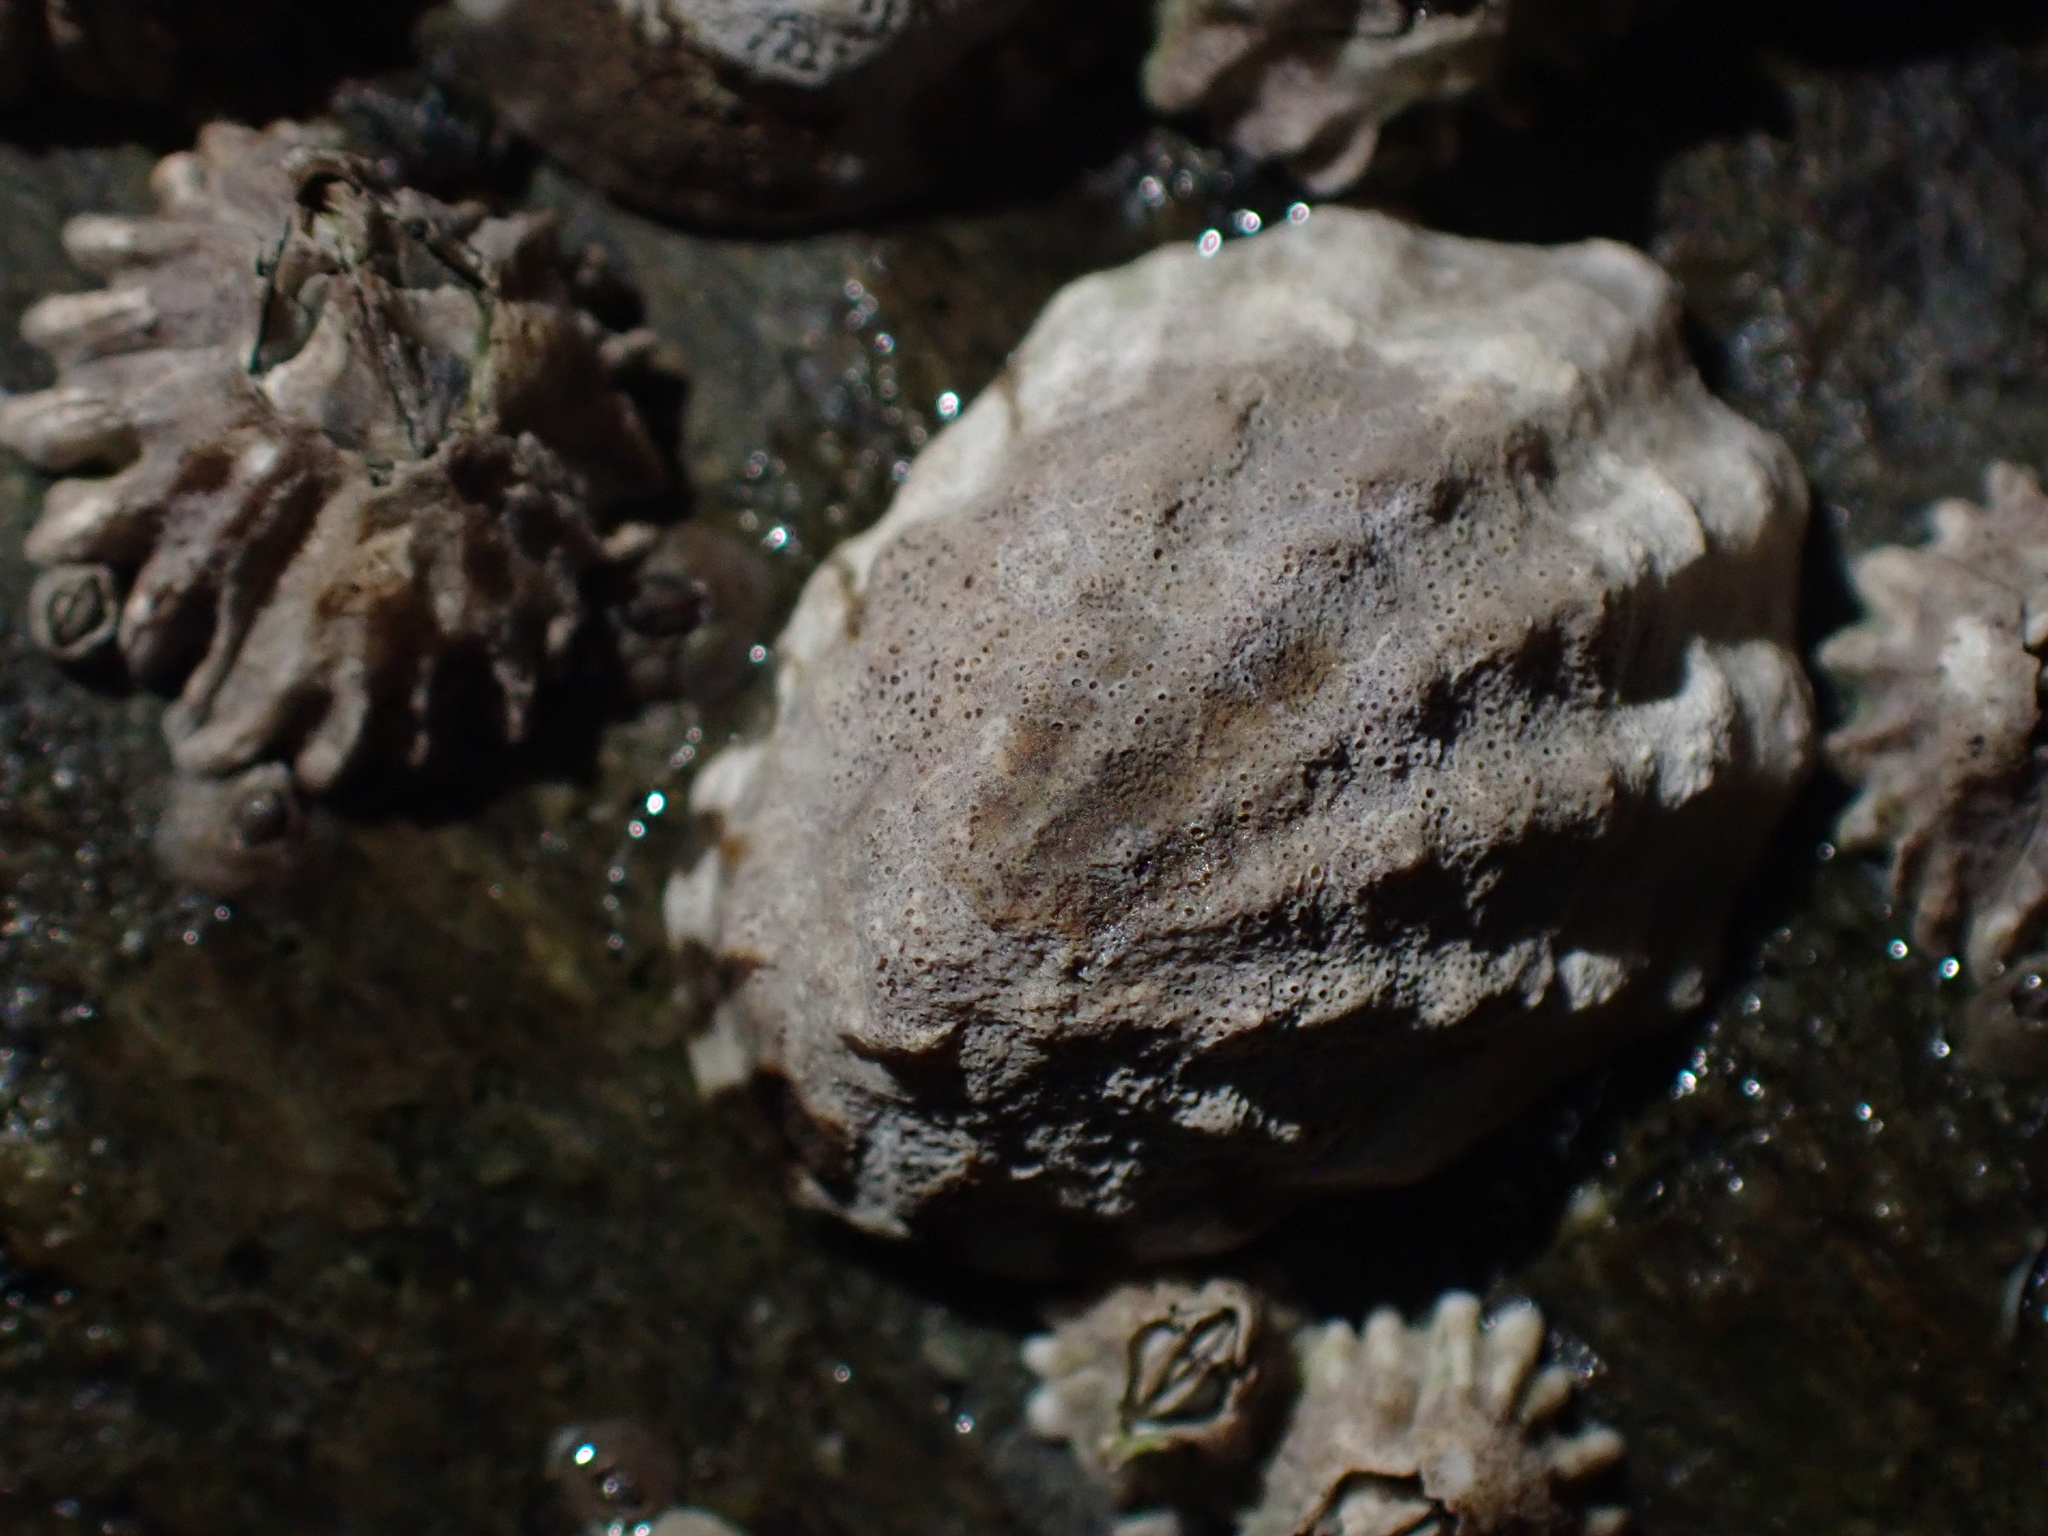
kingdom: Animalia
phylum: Mollusca
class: Gastropoda
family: Lottiidae
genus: Lottia
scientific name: Lottia digitalis
